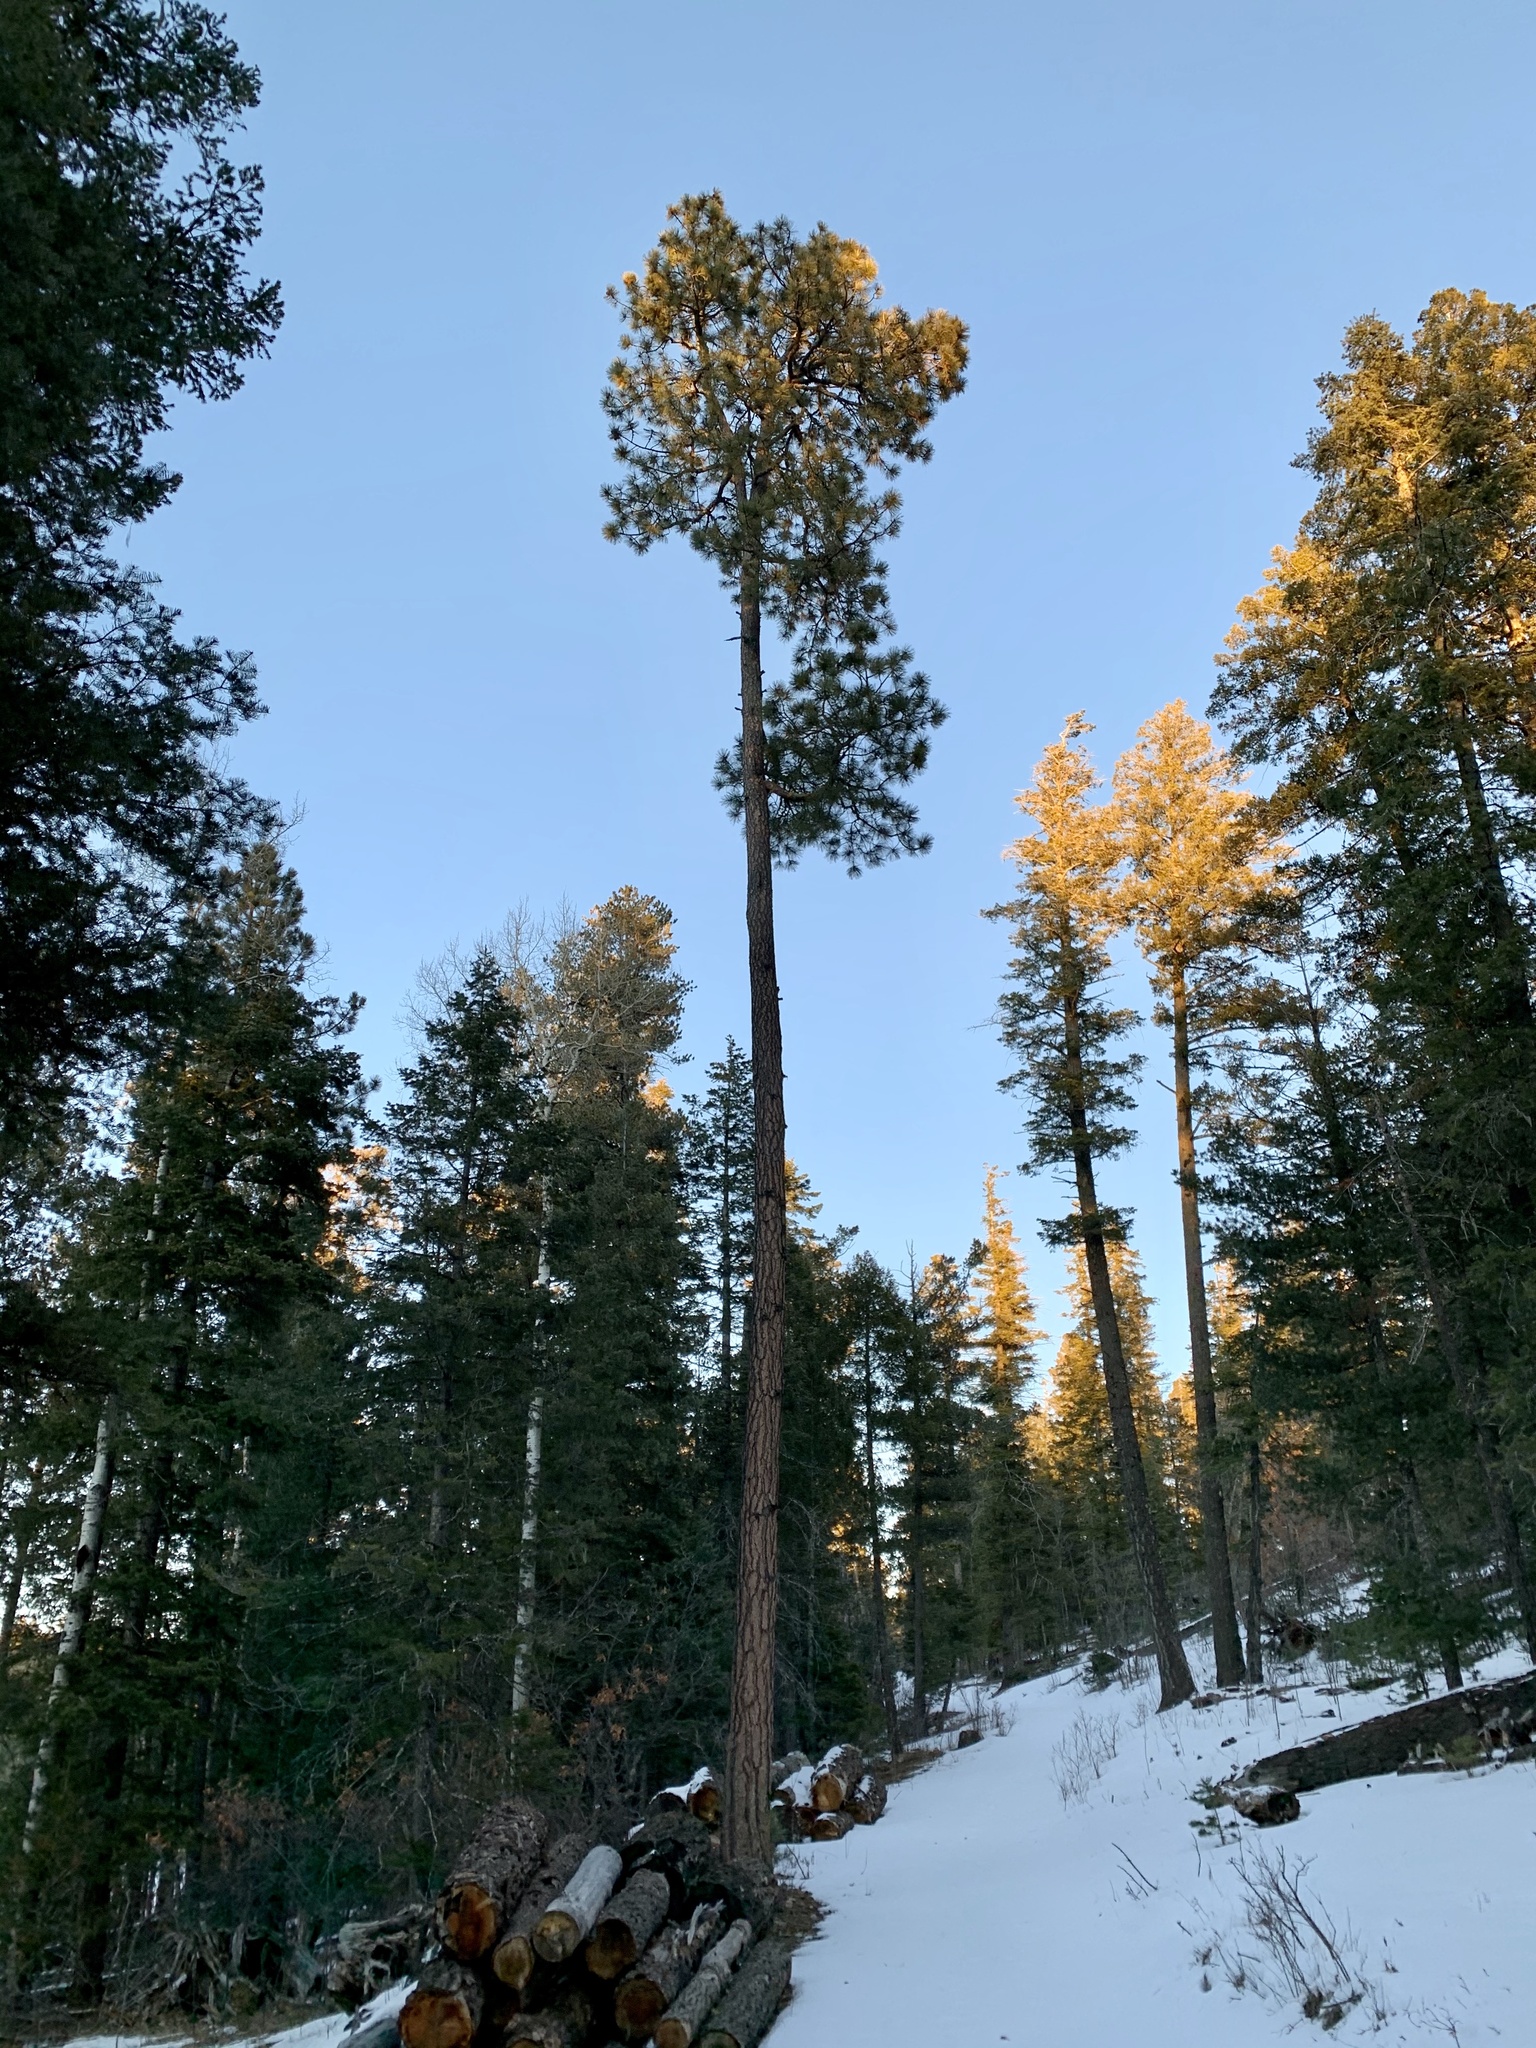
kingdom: Plantae
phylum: Tracheophyta
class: Pinopsida
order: Pinales
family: Pinaceae
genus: Pinus
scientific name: Pinus ponderosa
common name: Western yellow-pine
